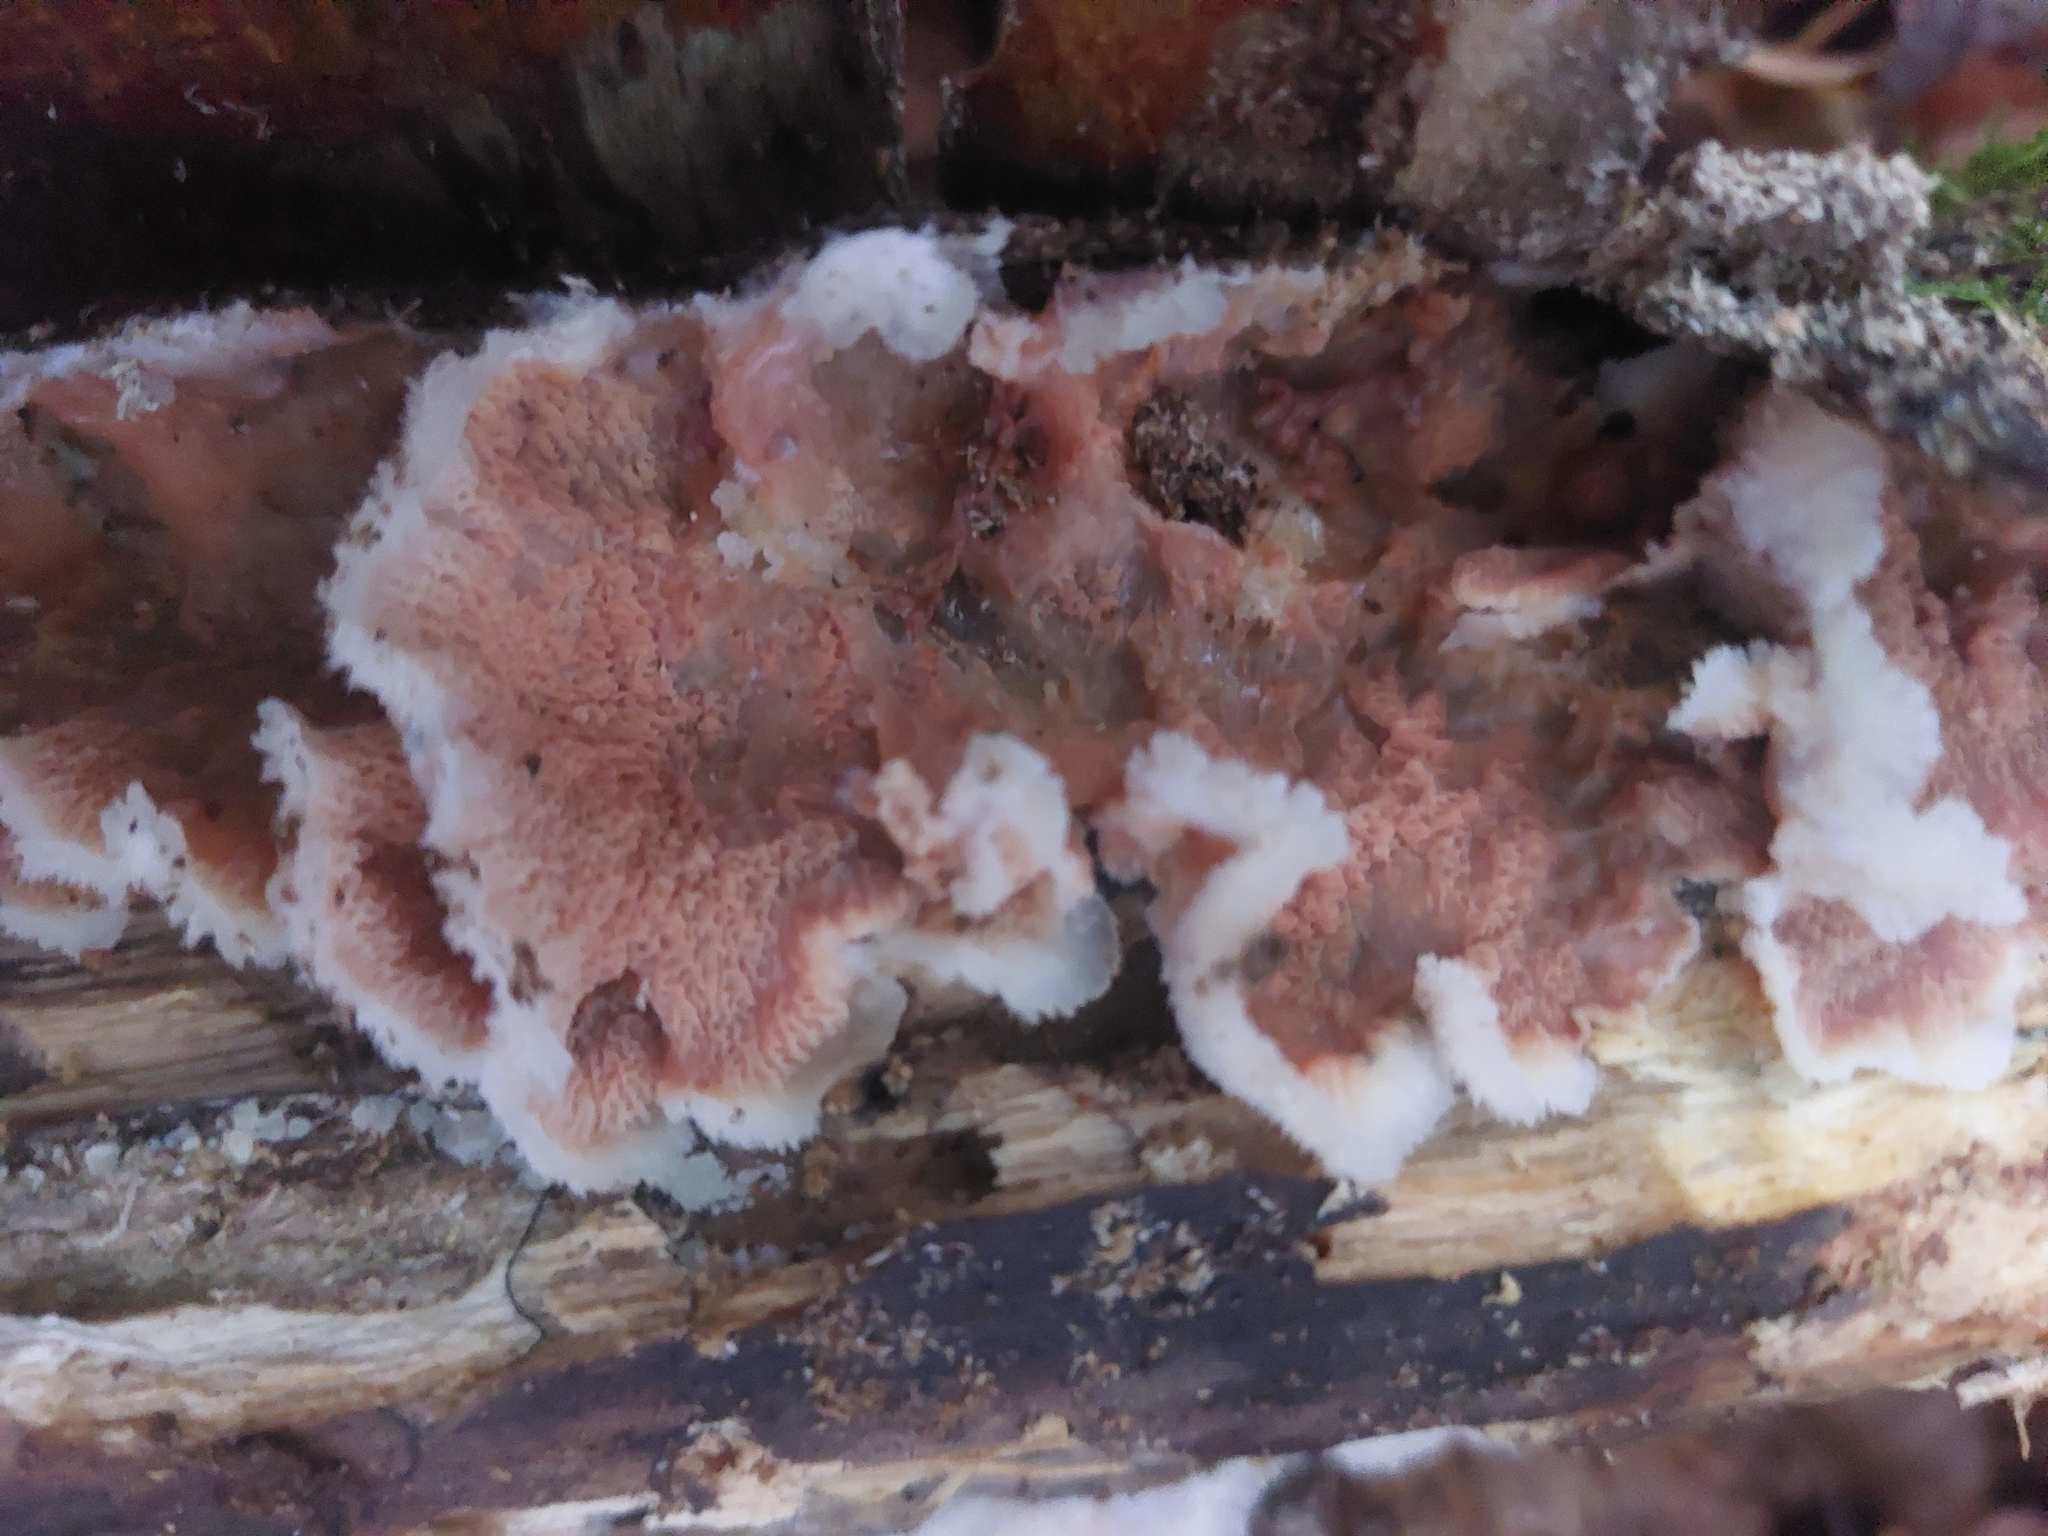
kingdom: Fungi
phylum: Basidiomycota
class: Agaricomycetes
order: Polyporales
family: Meruliaceae
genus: Phlebia
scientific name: Phlebia tremellosa
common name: Jelly rot
